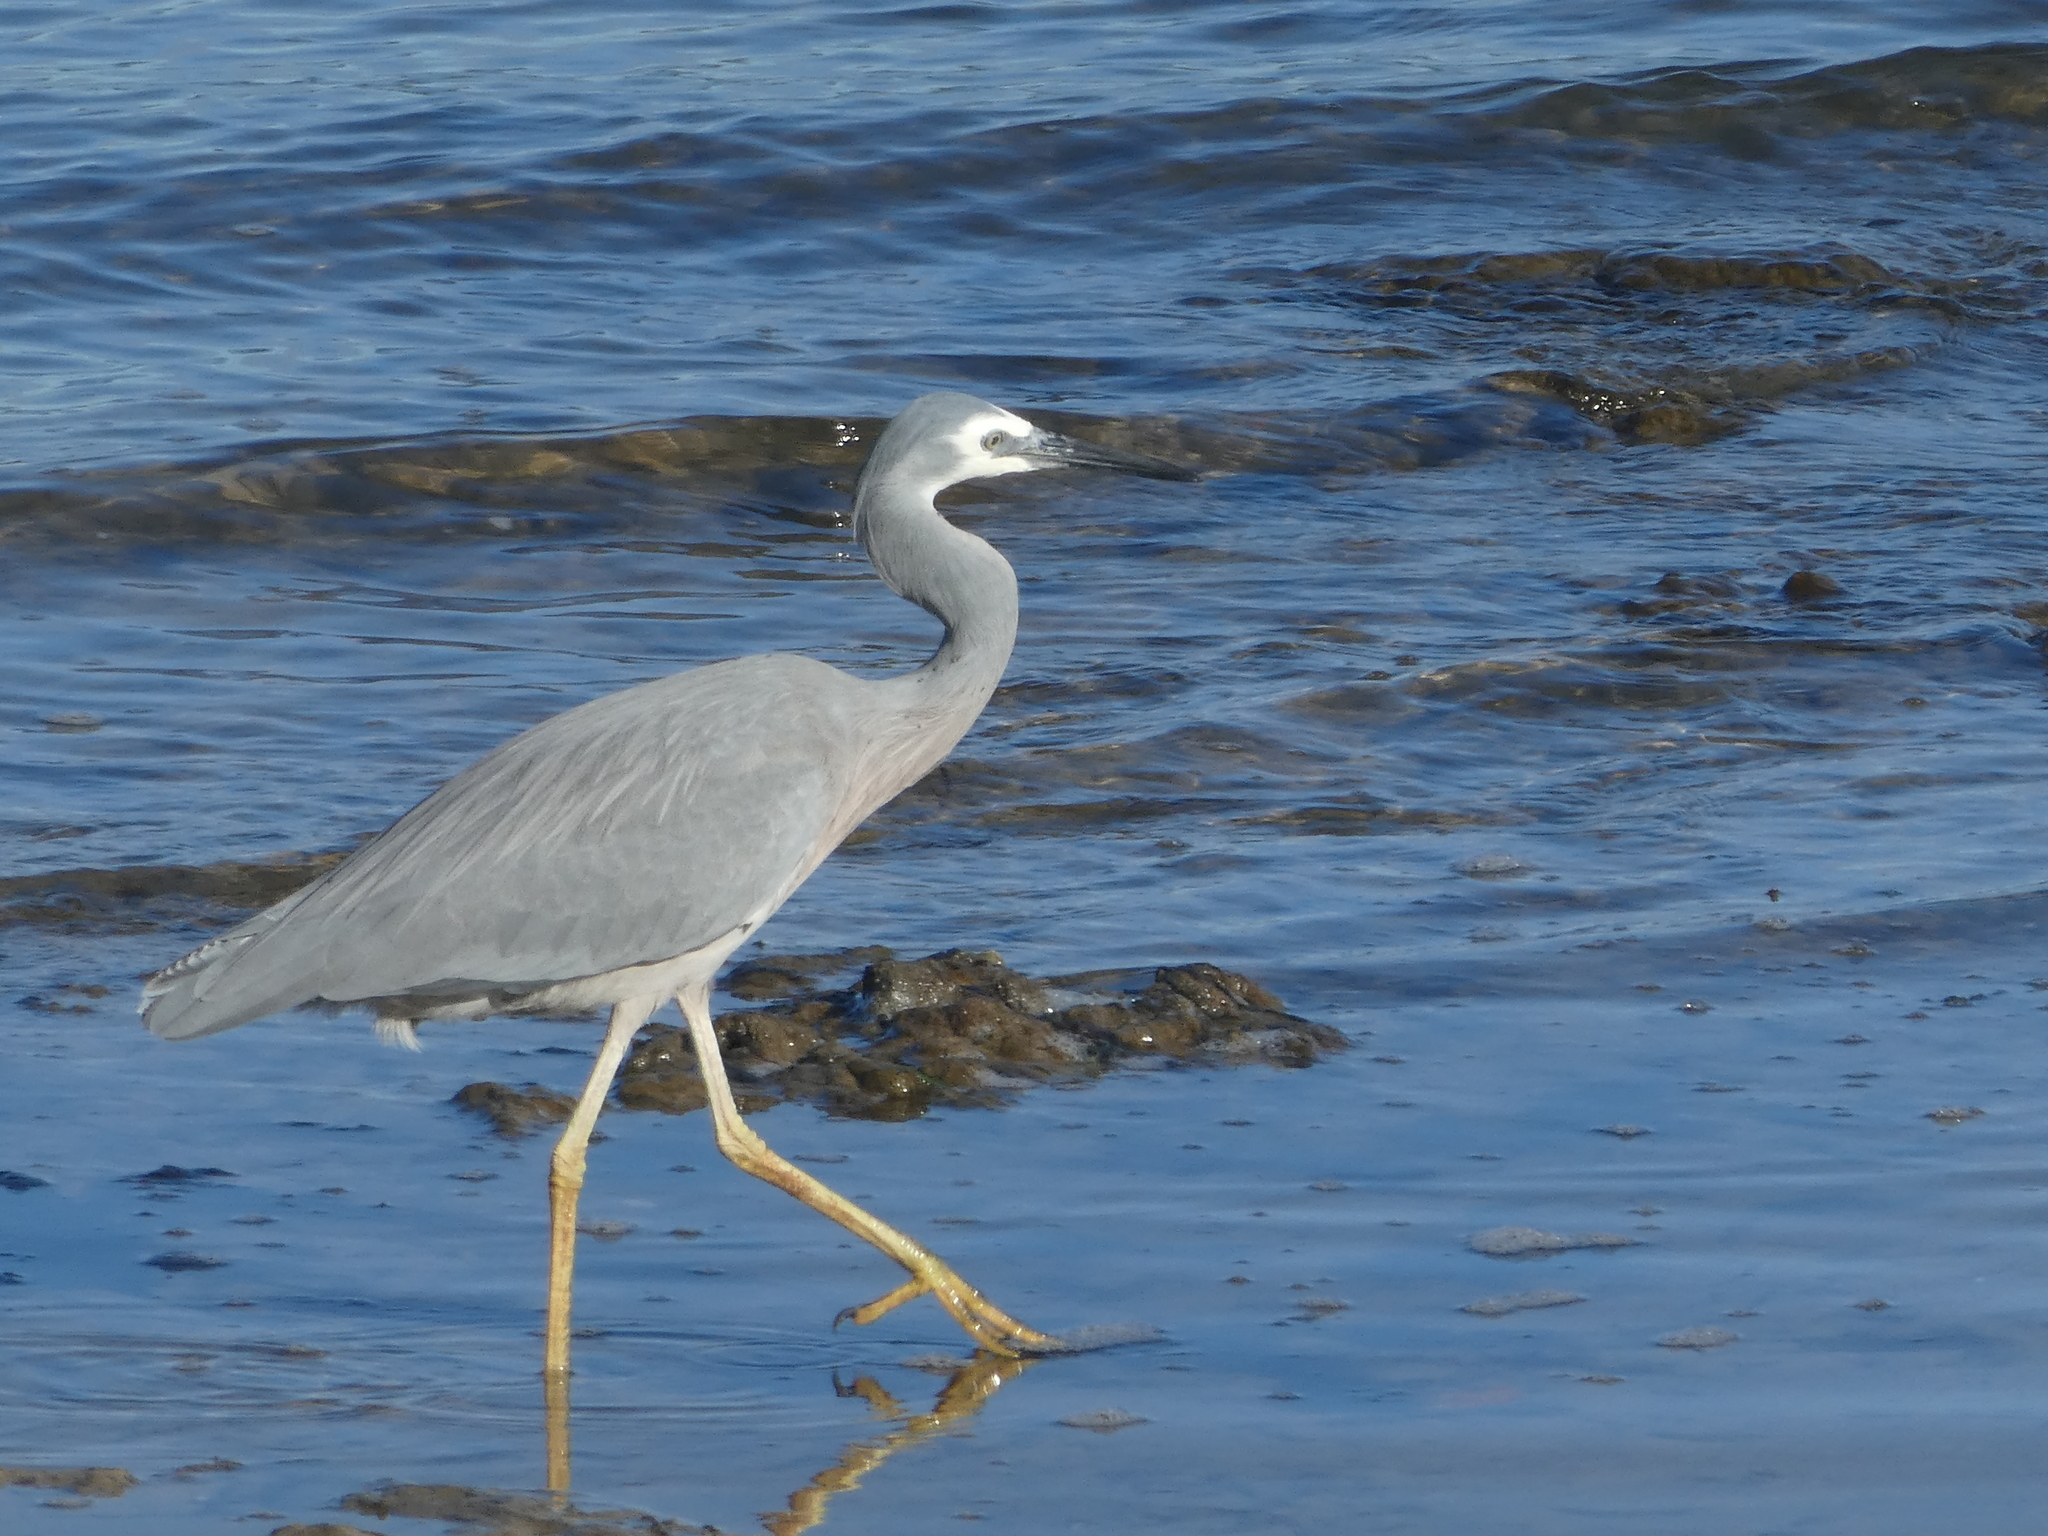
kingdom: Animalia
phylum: Chordata
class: Aves
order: Pelecaniformes
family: Ardeidae
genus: Egretta
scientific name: Egretta novaehollandiae
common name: White-faced heron
